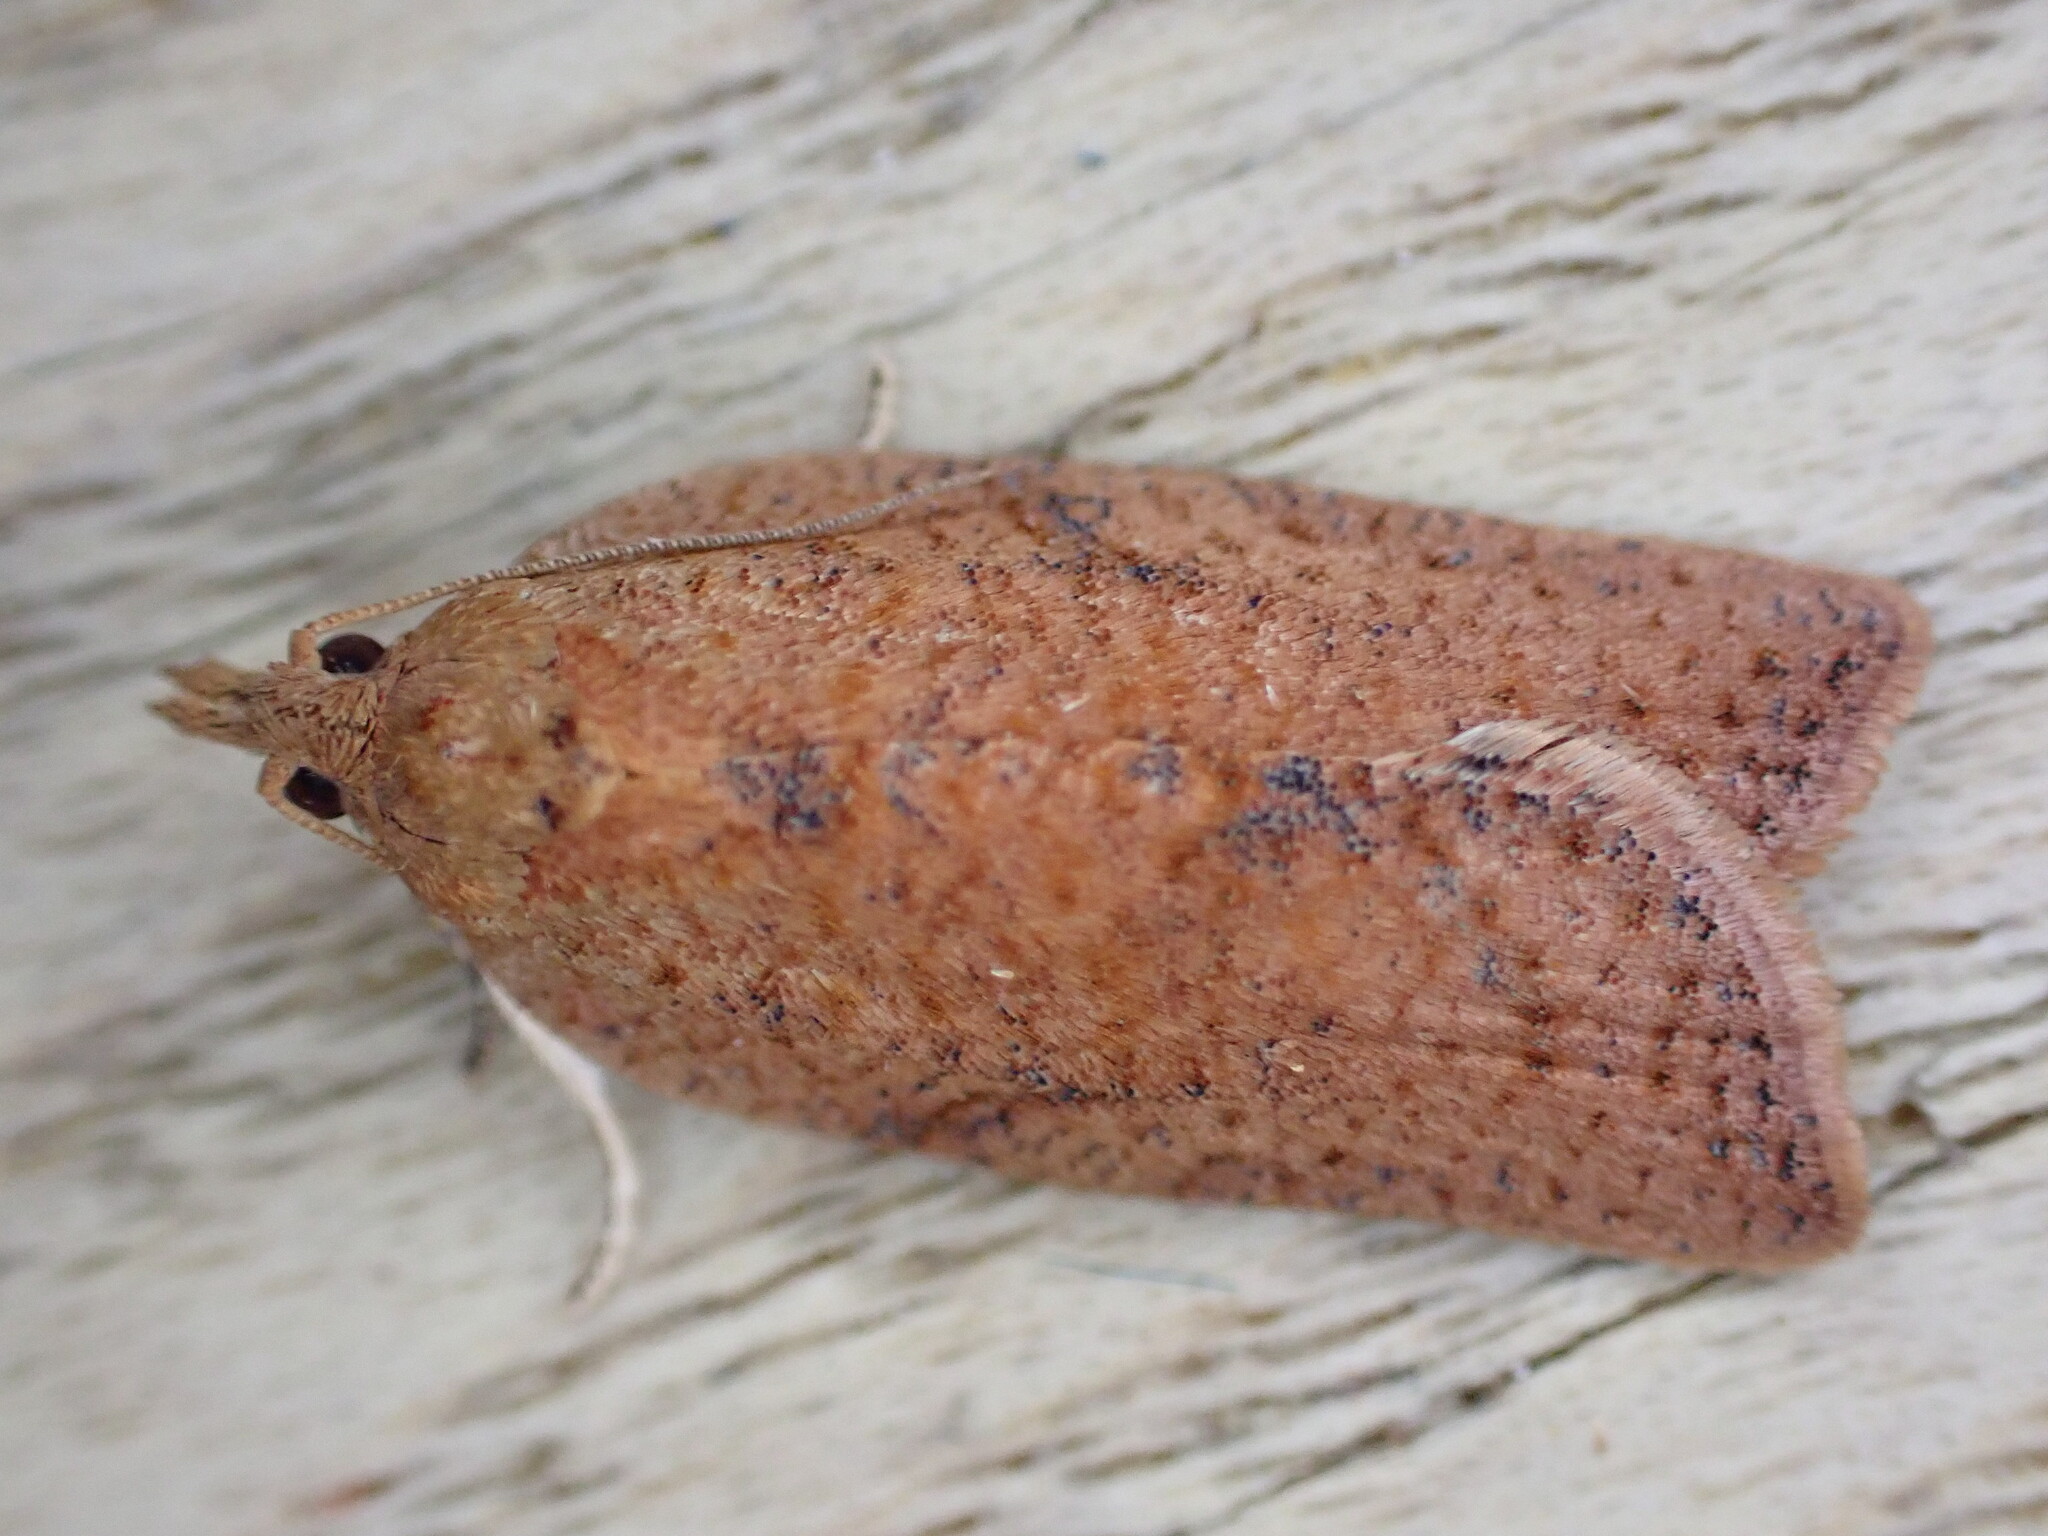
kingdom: Animalia
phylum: Arthropoda
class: Insecta
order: Lepidoptera
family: Tortricidae
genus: Epiphyas
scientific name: Epiphyas postvittana
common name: Light brown apple moth
